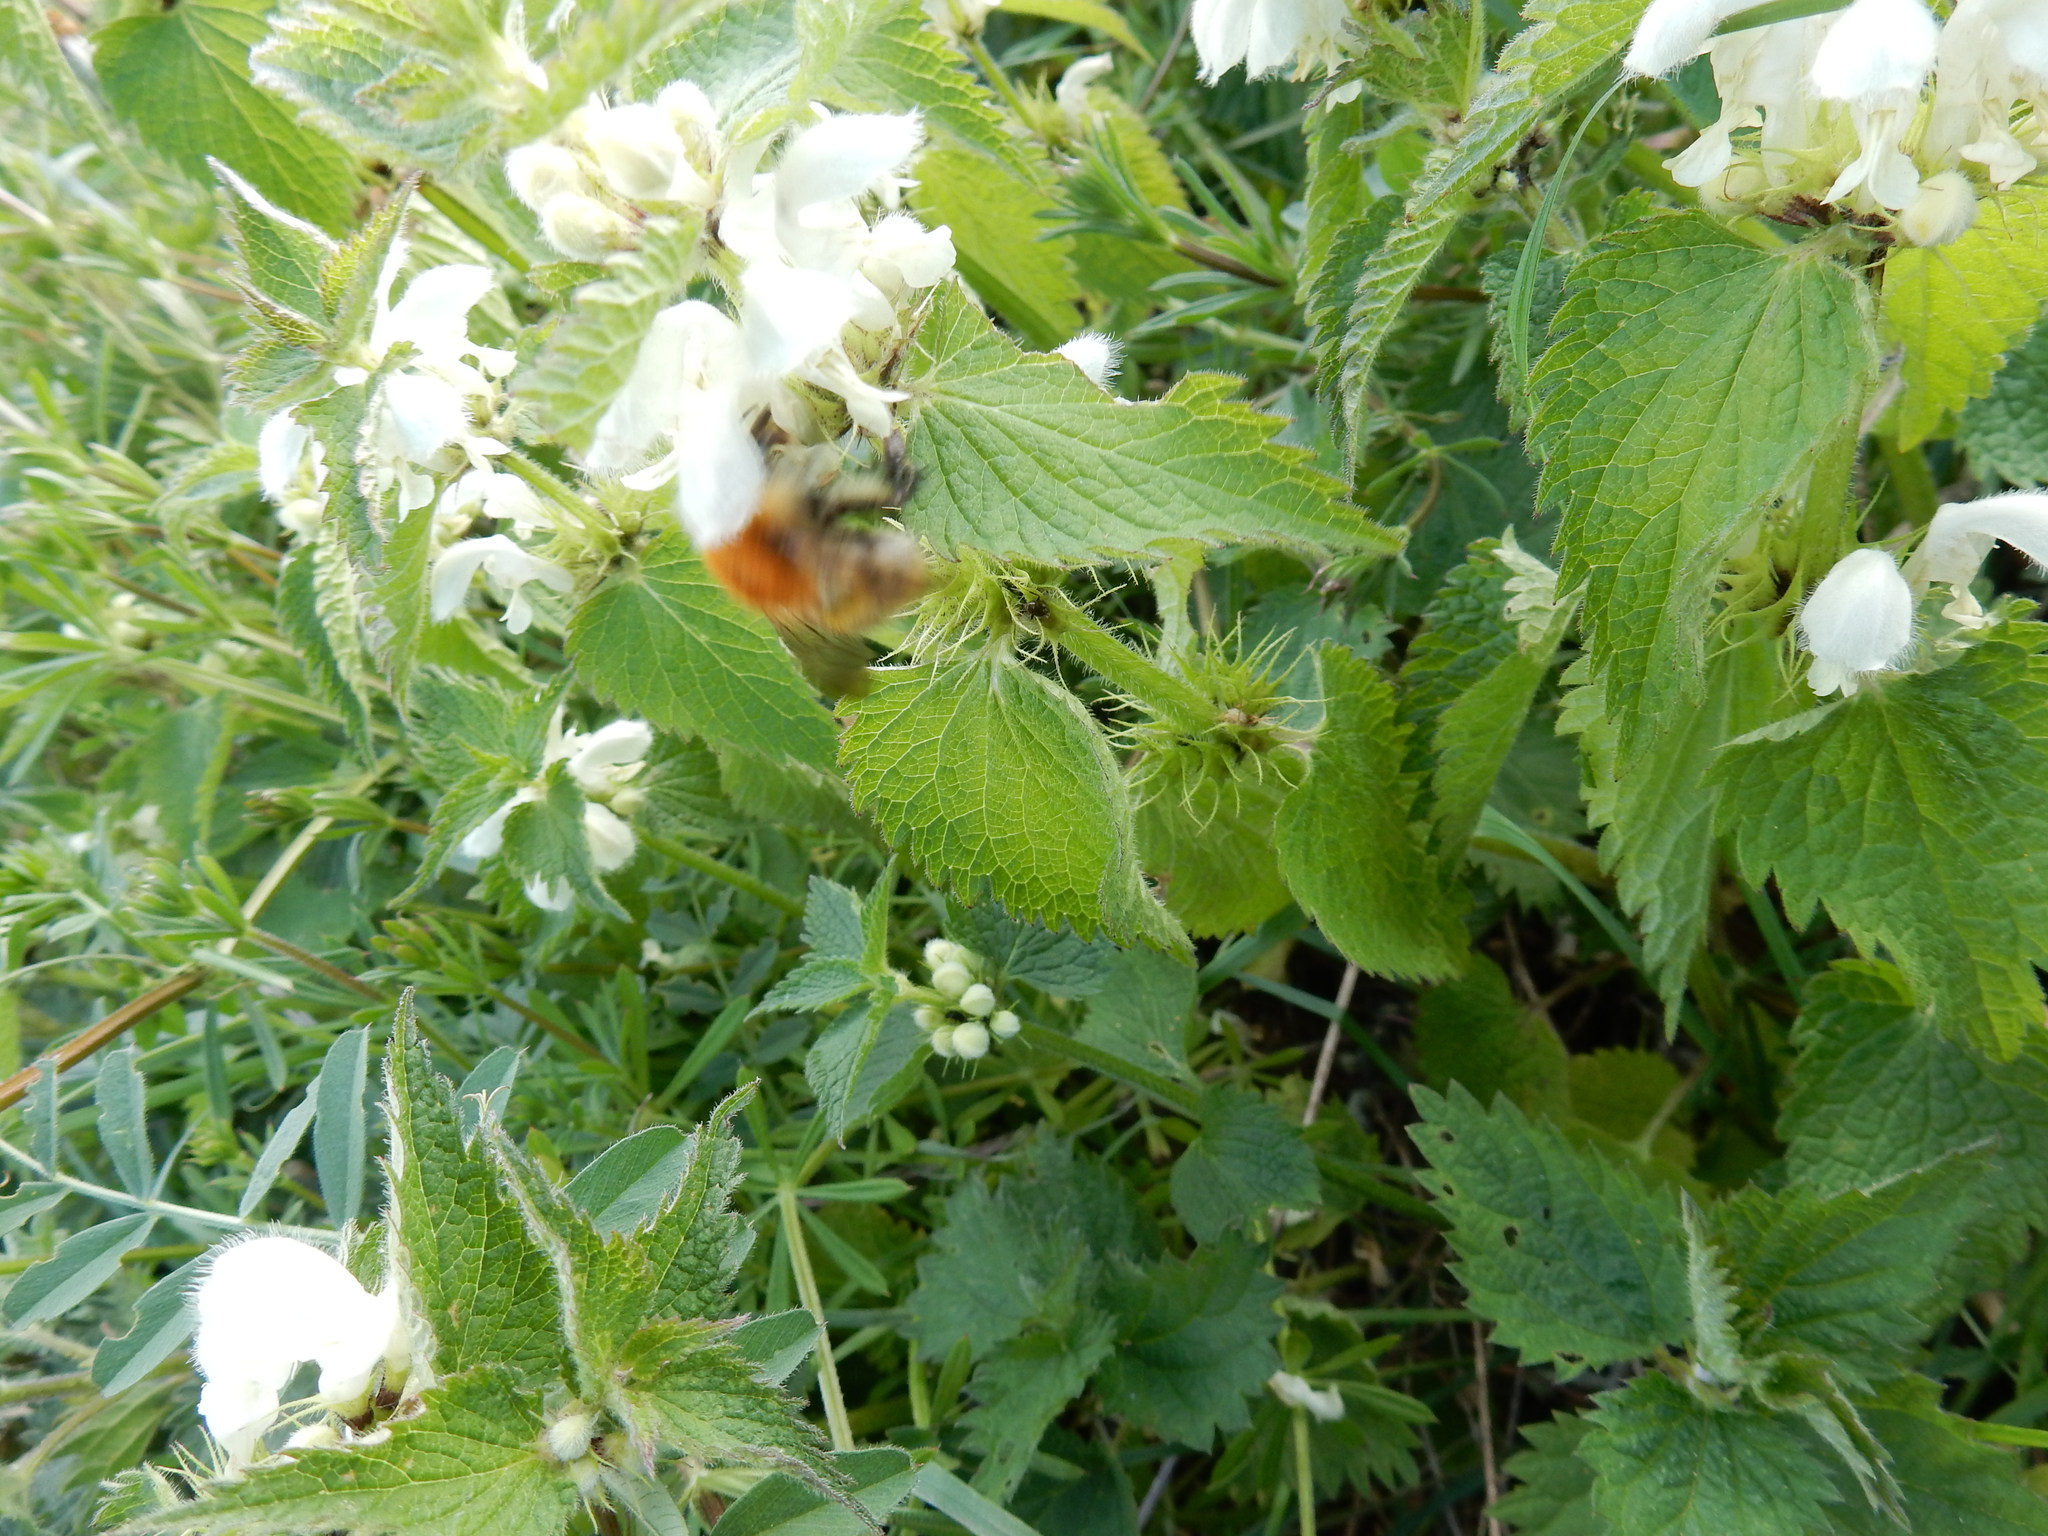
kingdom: Animalia
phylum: Arthropoda
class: Insecta
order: Hymenoptera
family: Apidae
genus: Bombus
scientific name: Bombus pascuorum
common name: Common carder bee
